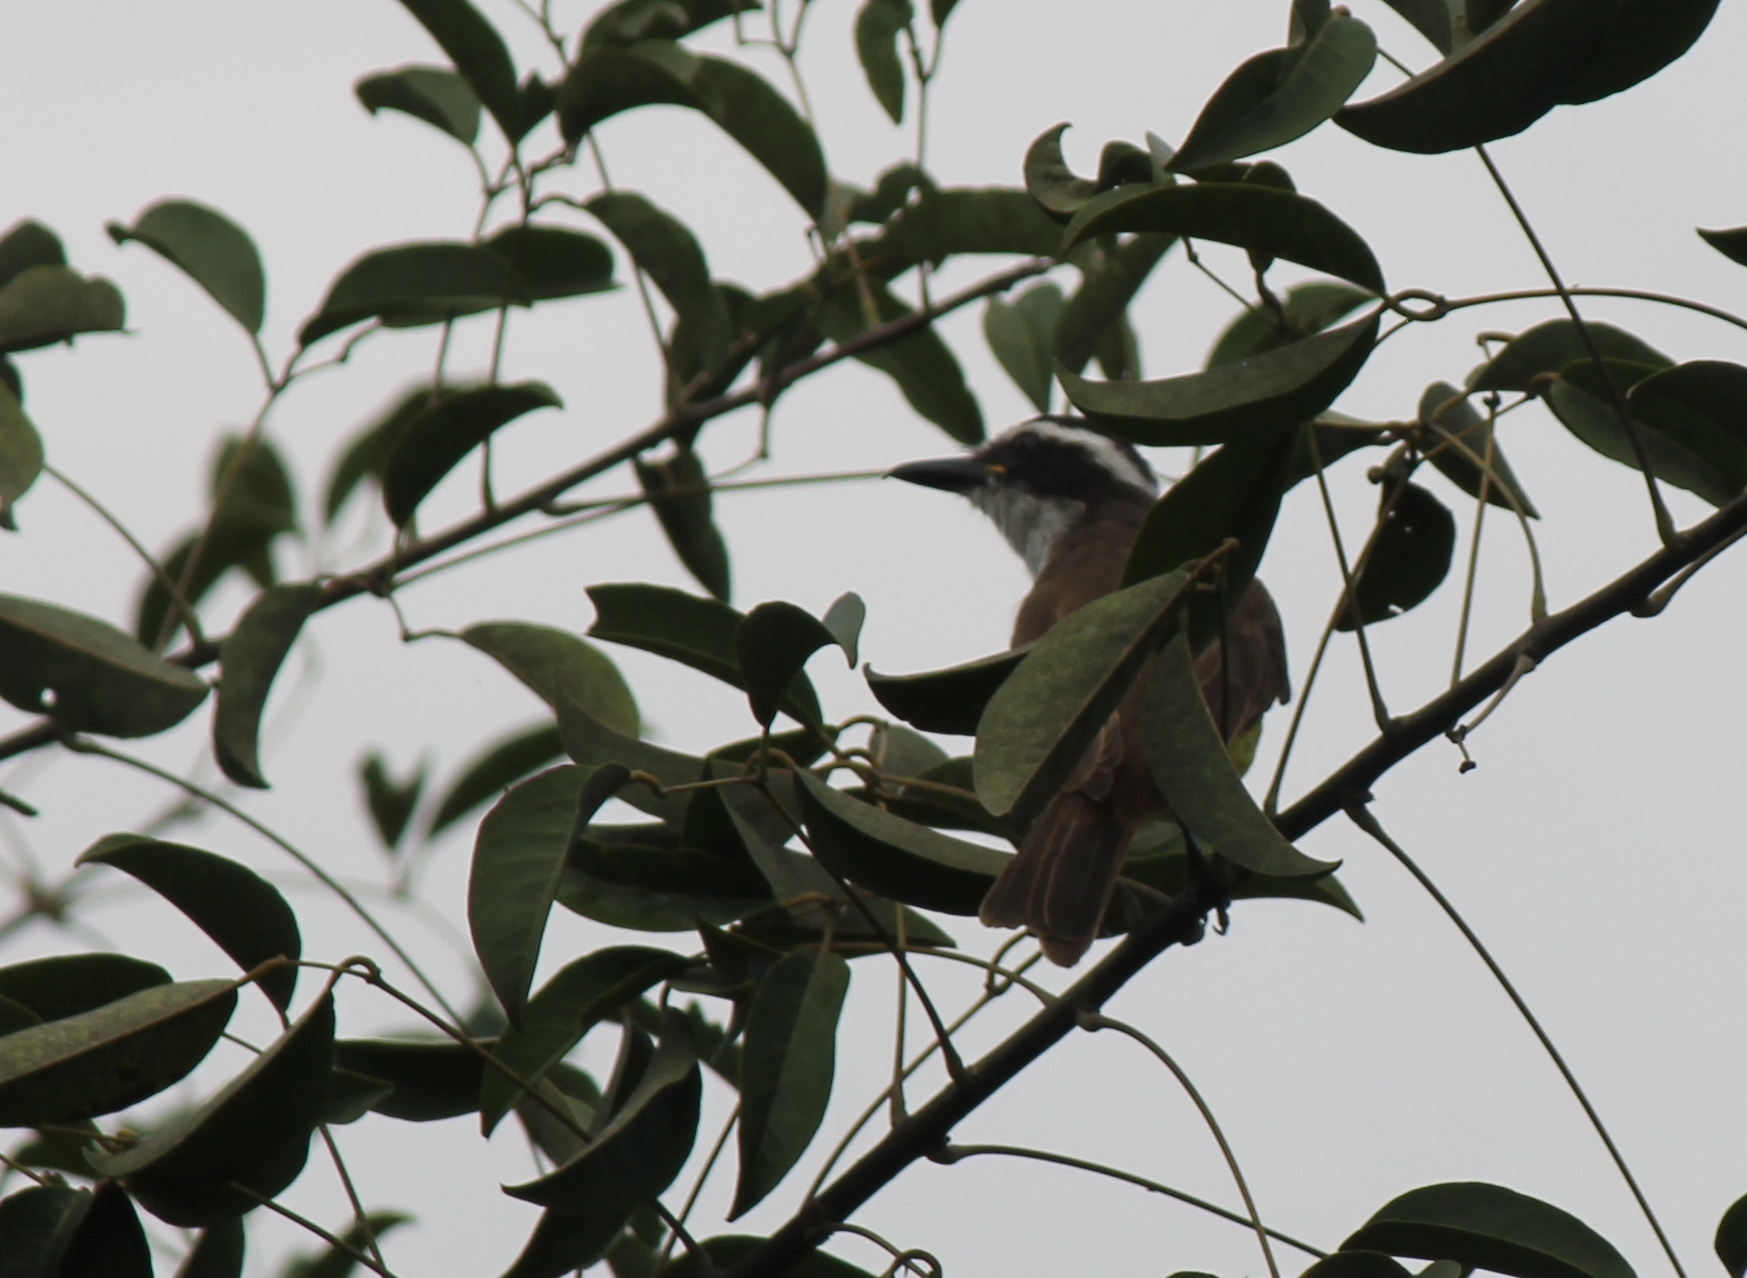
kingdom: Animalia
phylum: Chordata
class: Aves
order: Passeriformes
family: Tyrannidae
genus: Pitangus
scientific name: Pitangus sulphuratus
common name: Great kiskadee
